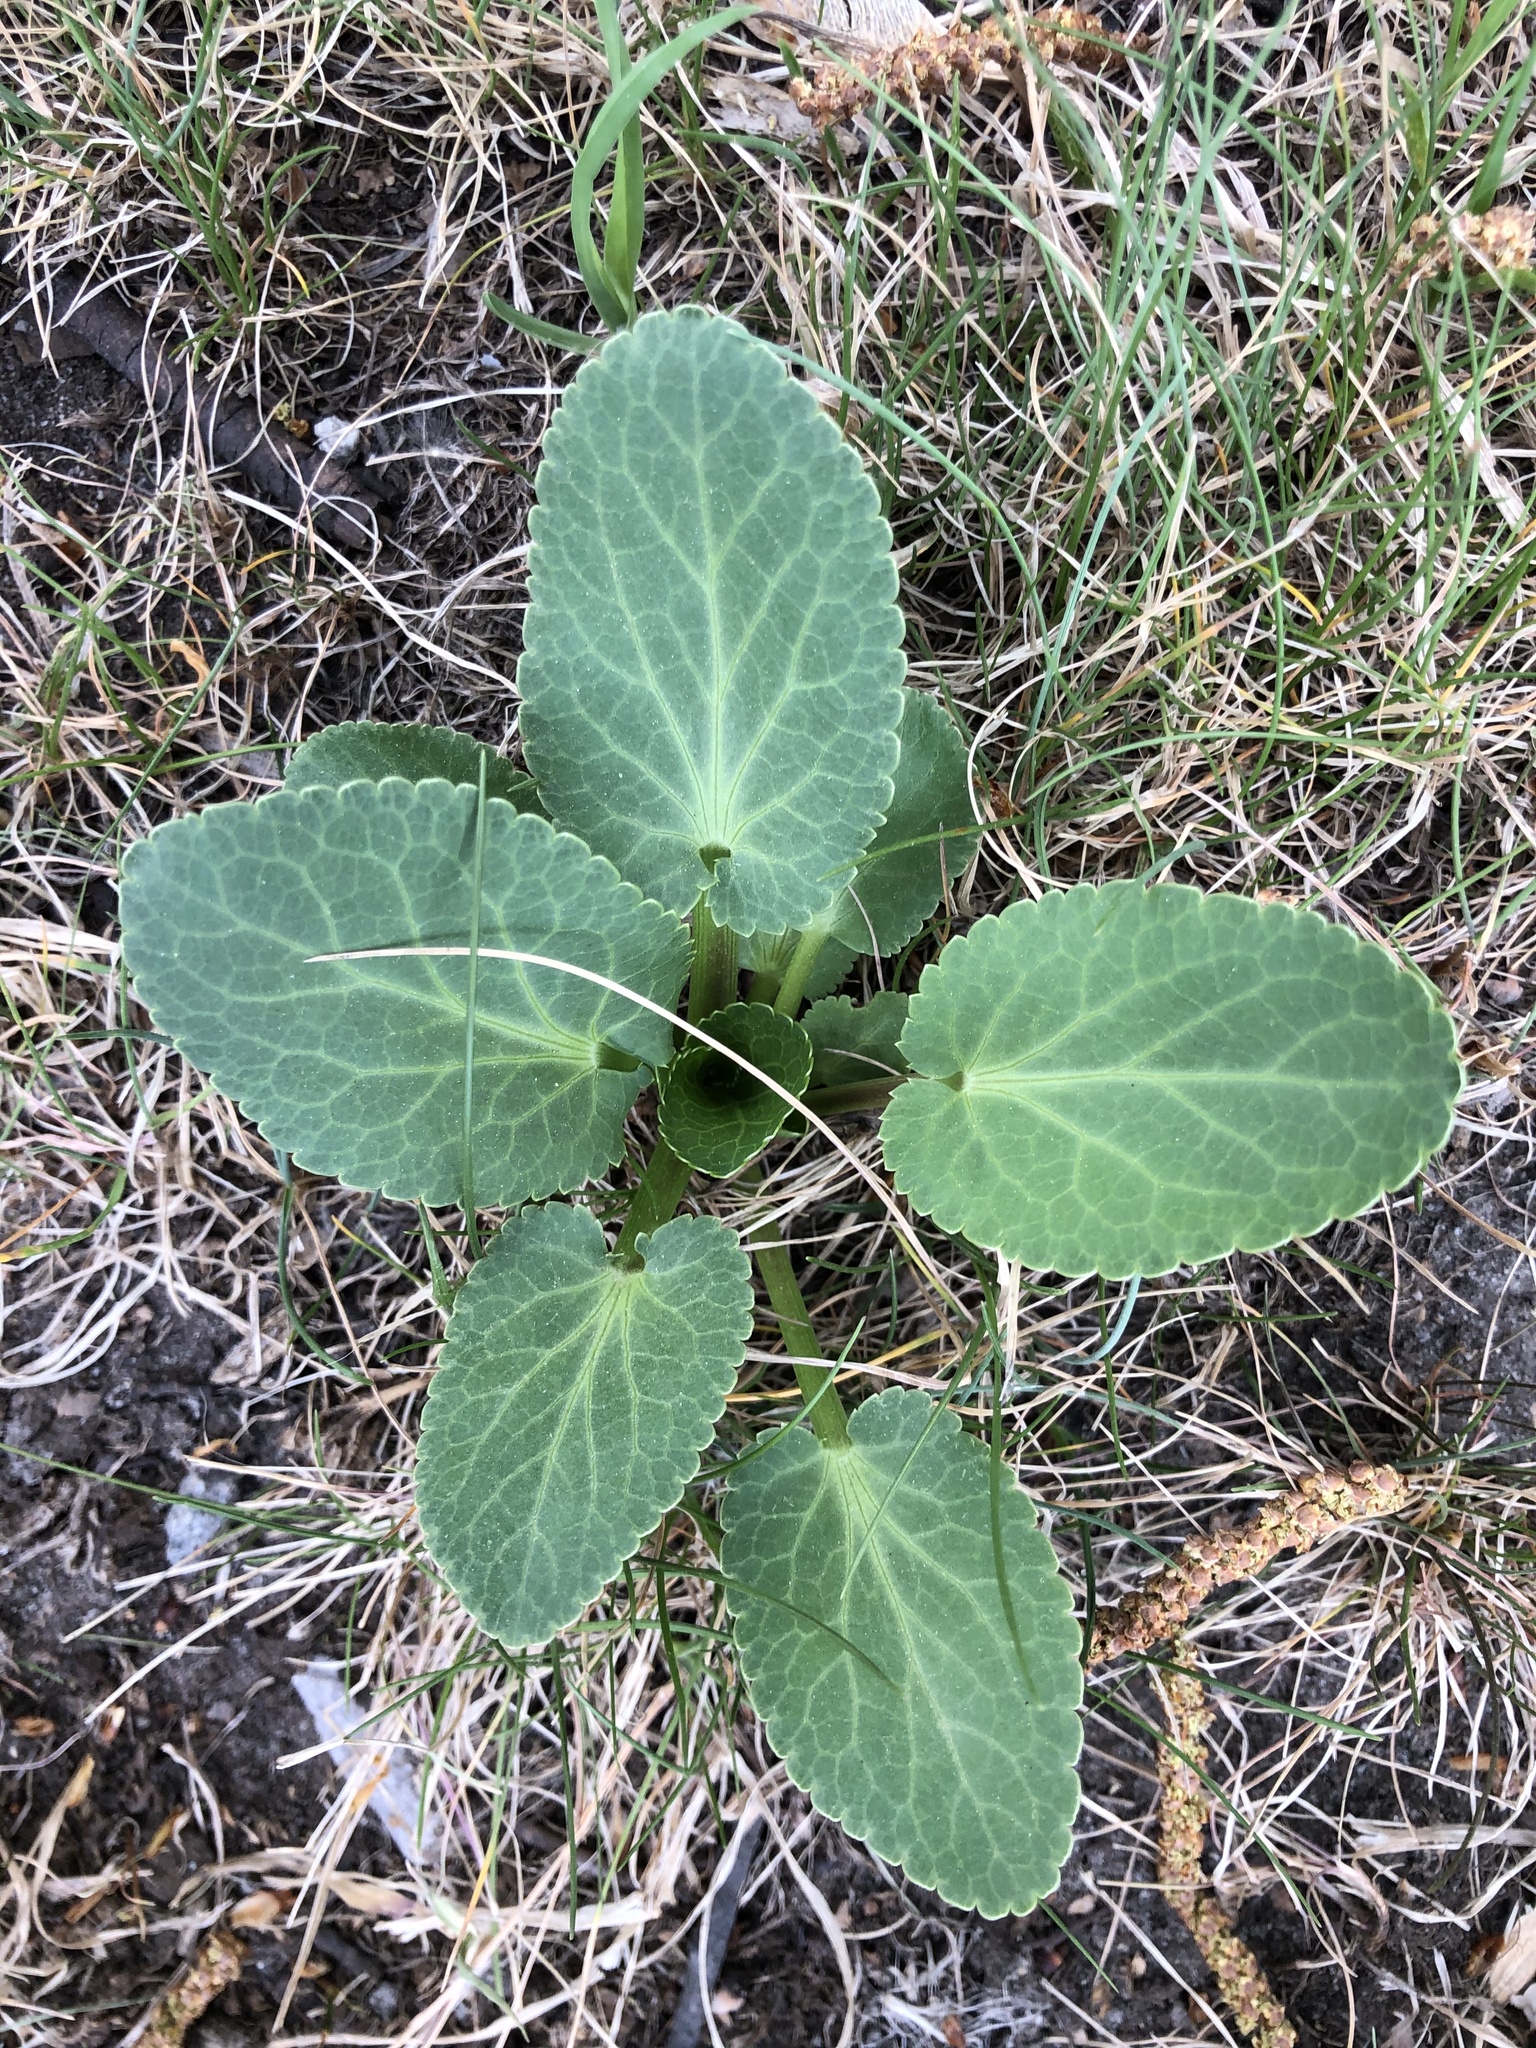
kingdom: Plantae
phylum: Tracheophyta
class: Magnoliopsida
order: Apiales
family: Apiaceae
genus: Eryngium
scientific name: Eryngium planum
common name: Blue eryngo
